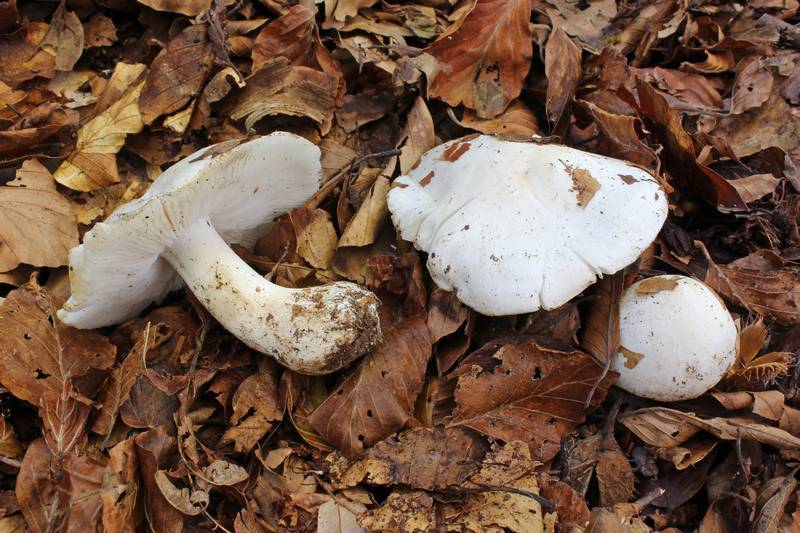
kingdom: Fungi
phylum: Basidiomycota
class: Agaricomycetes
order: Agaricales
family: Tricholomataceae
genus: Tricholoma
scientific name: Tricholoma columbetta
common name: Blue spot knight
